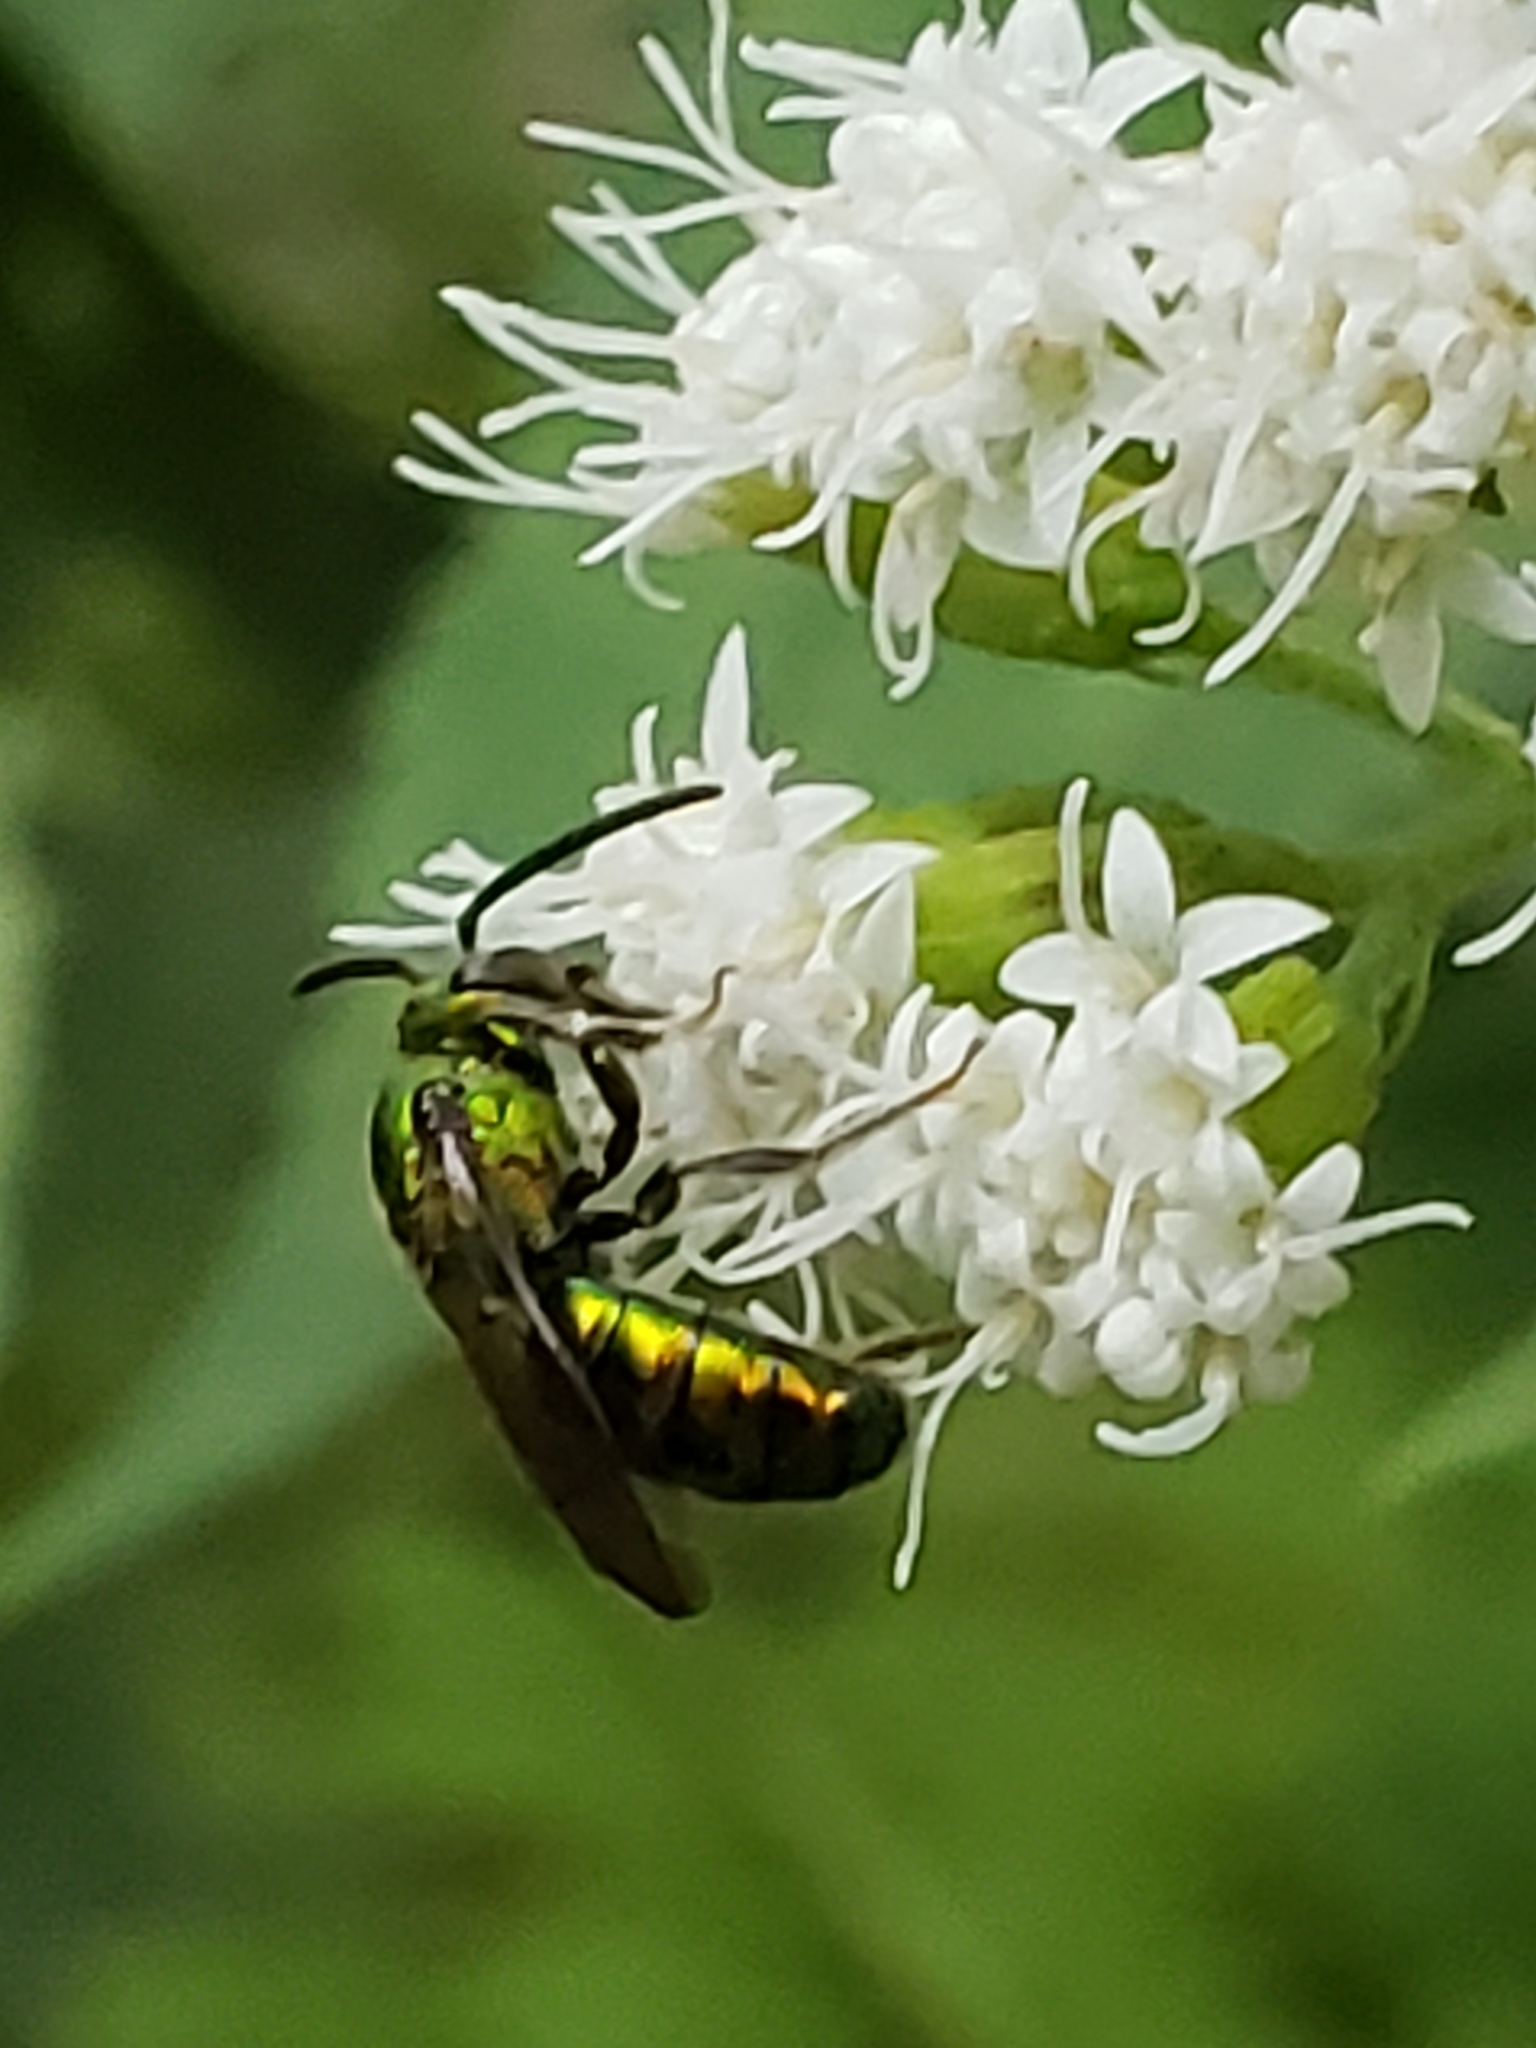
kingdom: Animalia
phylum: Arthropoda
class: Insecta
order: Hymenoptera
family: Halictidae
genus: Augochlora
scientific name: Augochlora pura
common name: Pure green sweat bee
